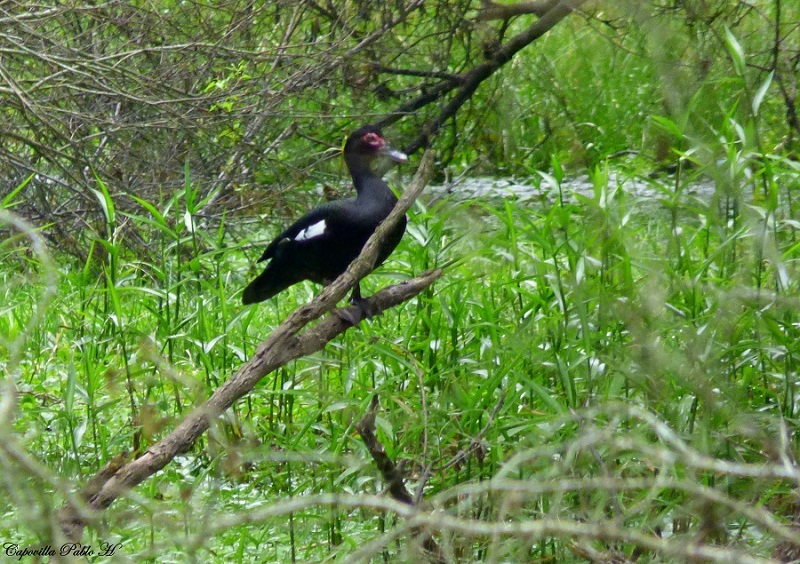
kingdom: Animalia
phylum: Chordata
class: Aves
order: Anseriformes
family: Anatidae
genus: Cairina
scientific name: Cairina moschata
